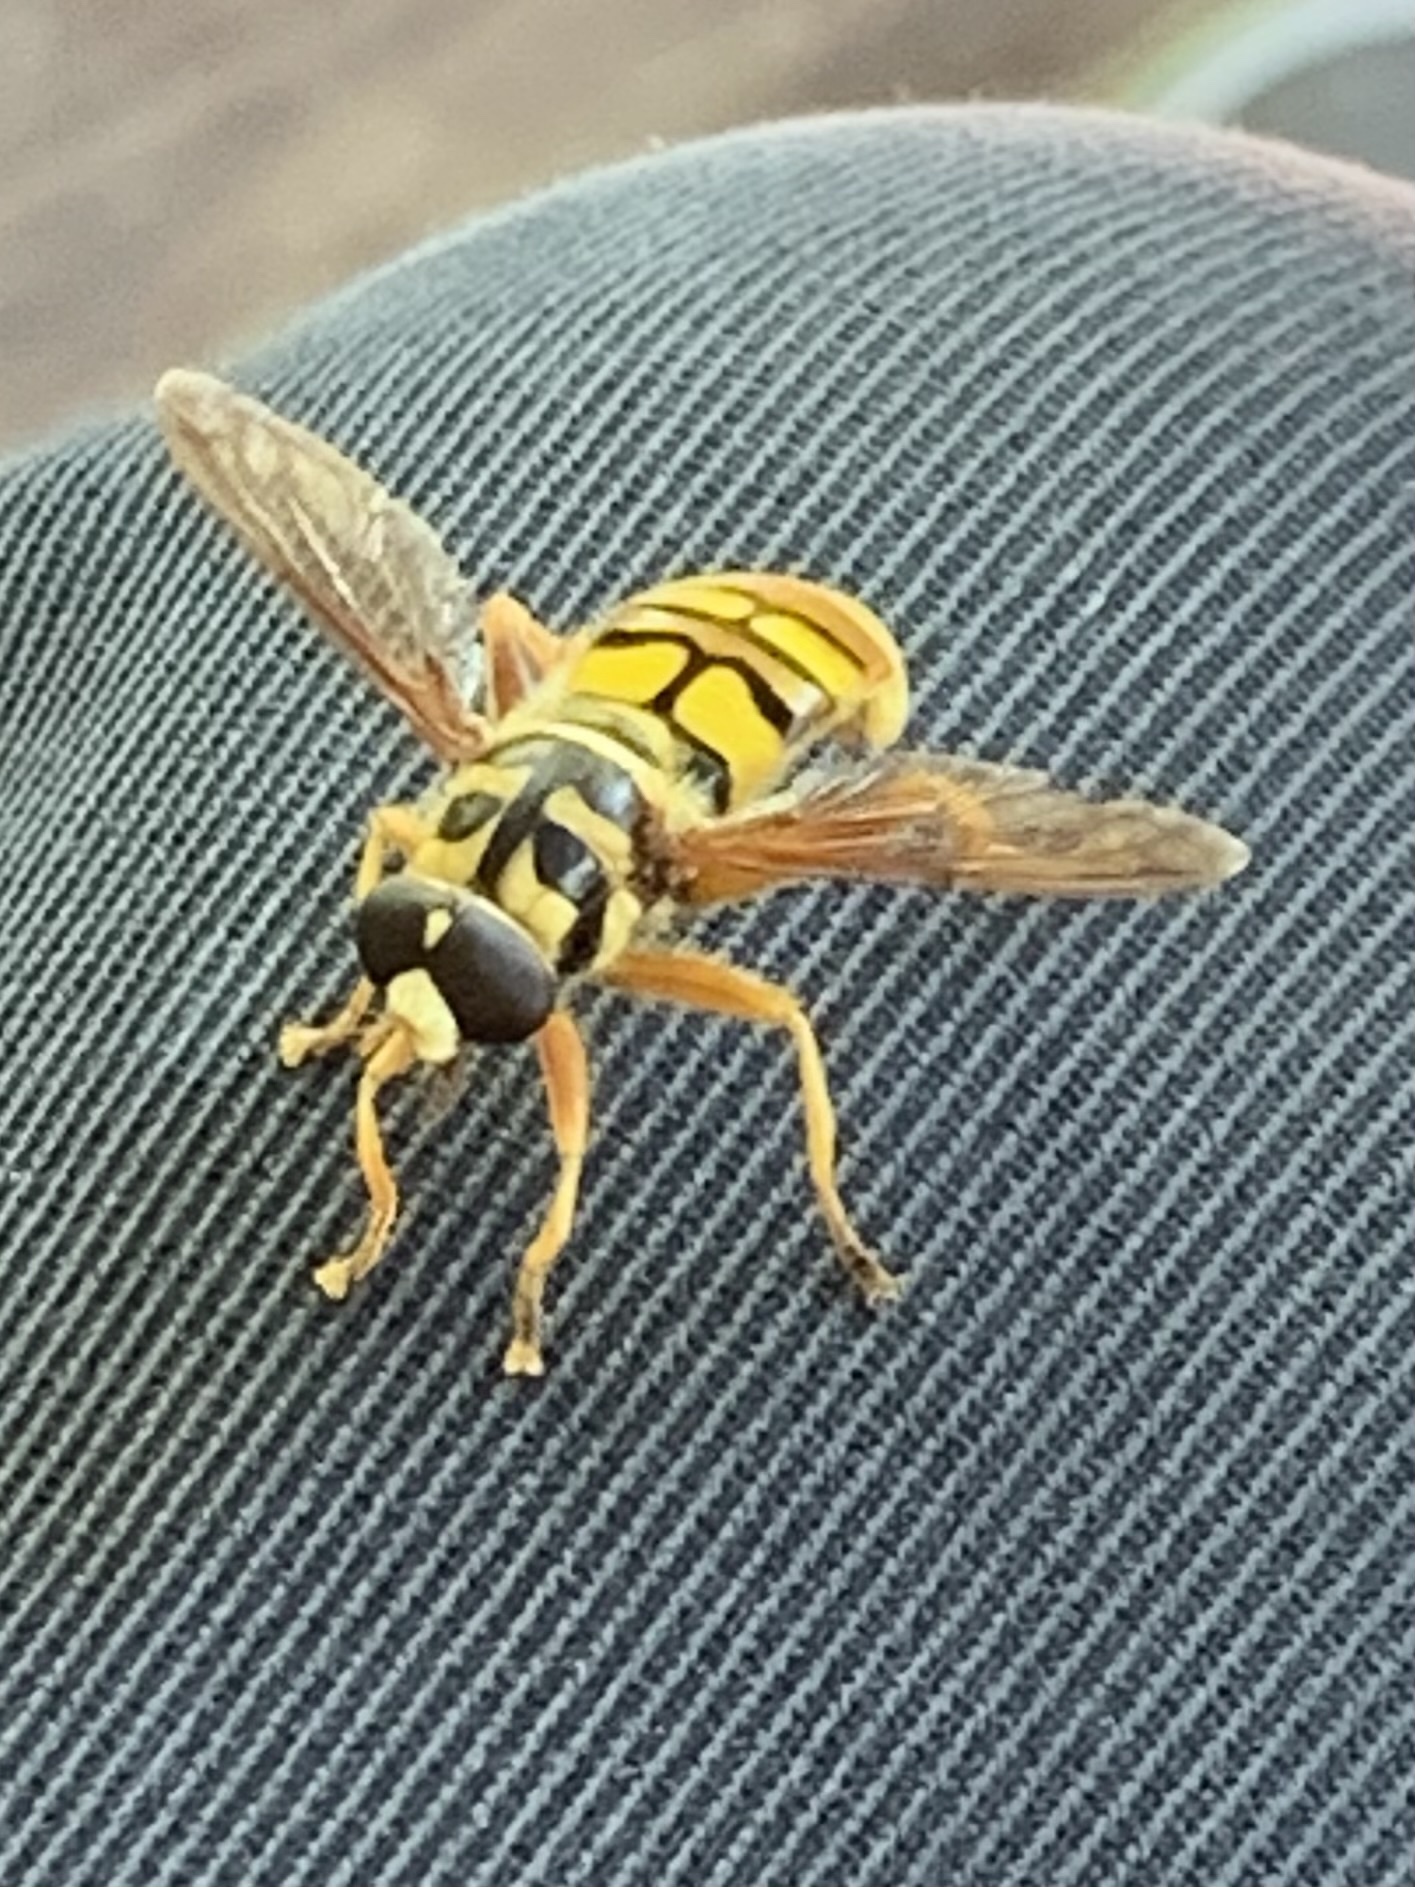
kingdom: Animalia
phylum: Arthropoda
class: Insecta
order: Diptera
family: Syrphidae
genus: Milesia
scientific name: Milesia virginiensis
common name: Virginia giant
